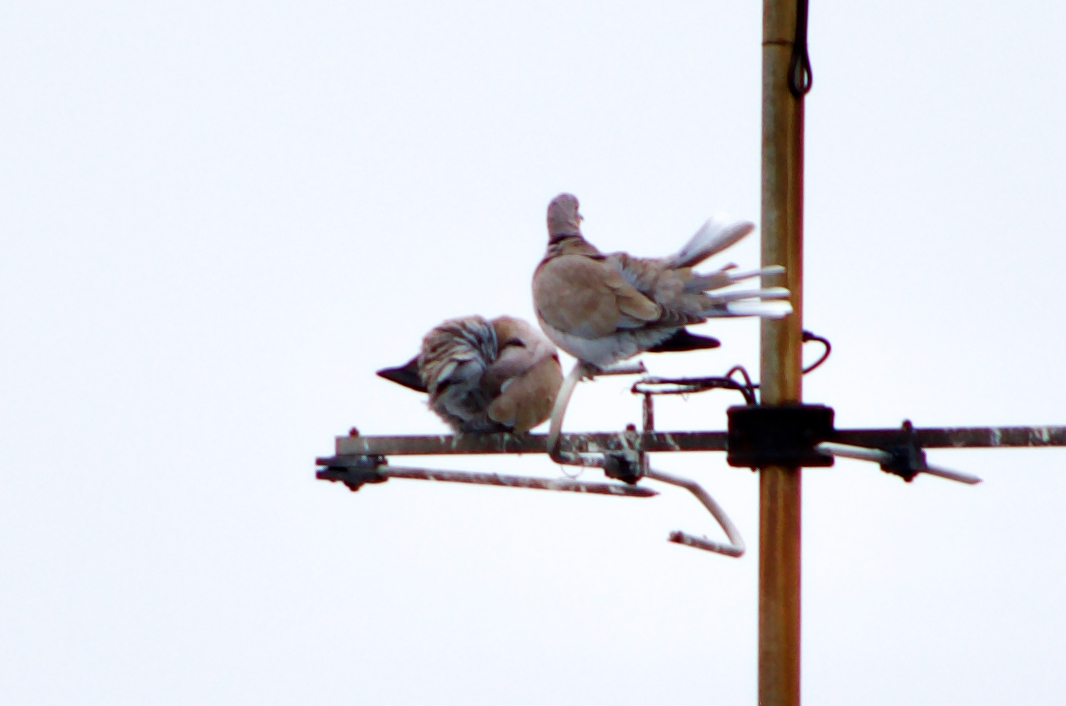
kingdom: Animalia
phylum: Chordata
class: Aves
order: Columbiformes
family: Columbidae
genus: Streptopelia
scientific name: Streptopelia decaocto
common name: Eurasian collared dove
